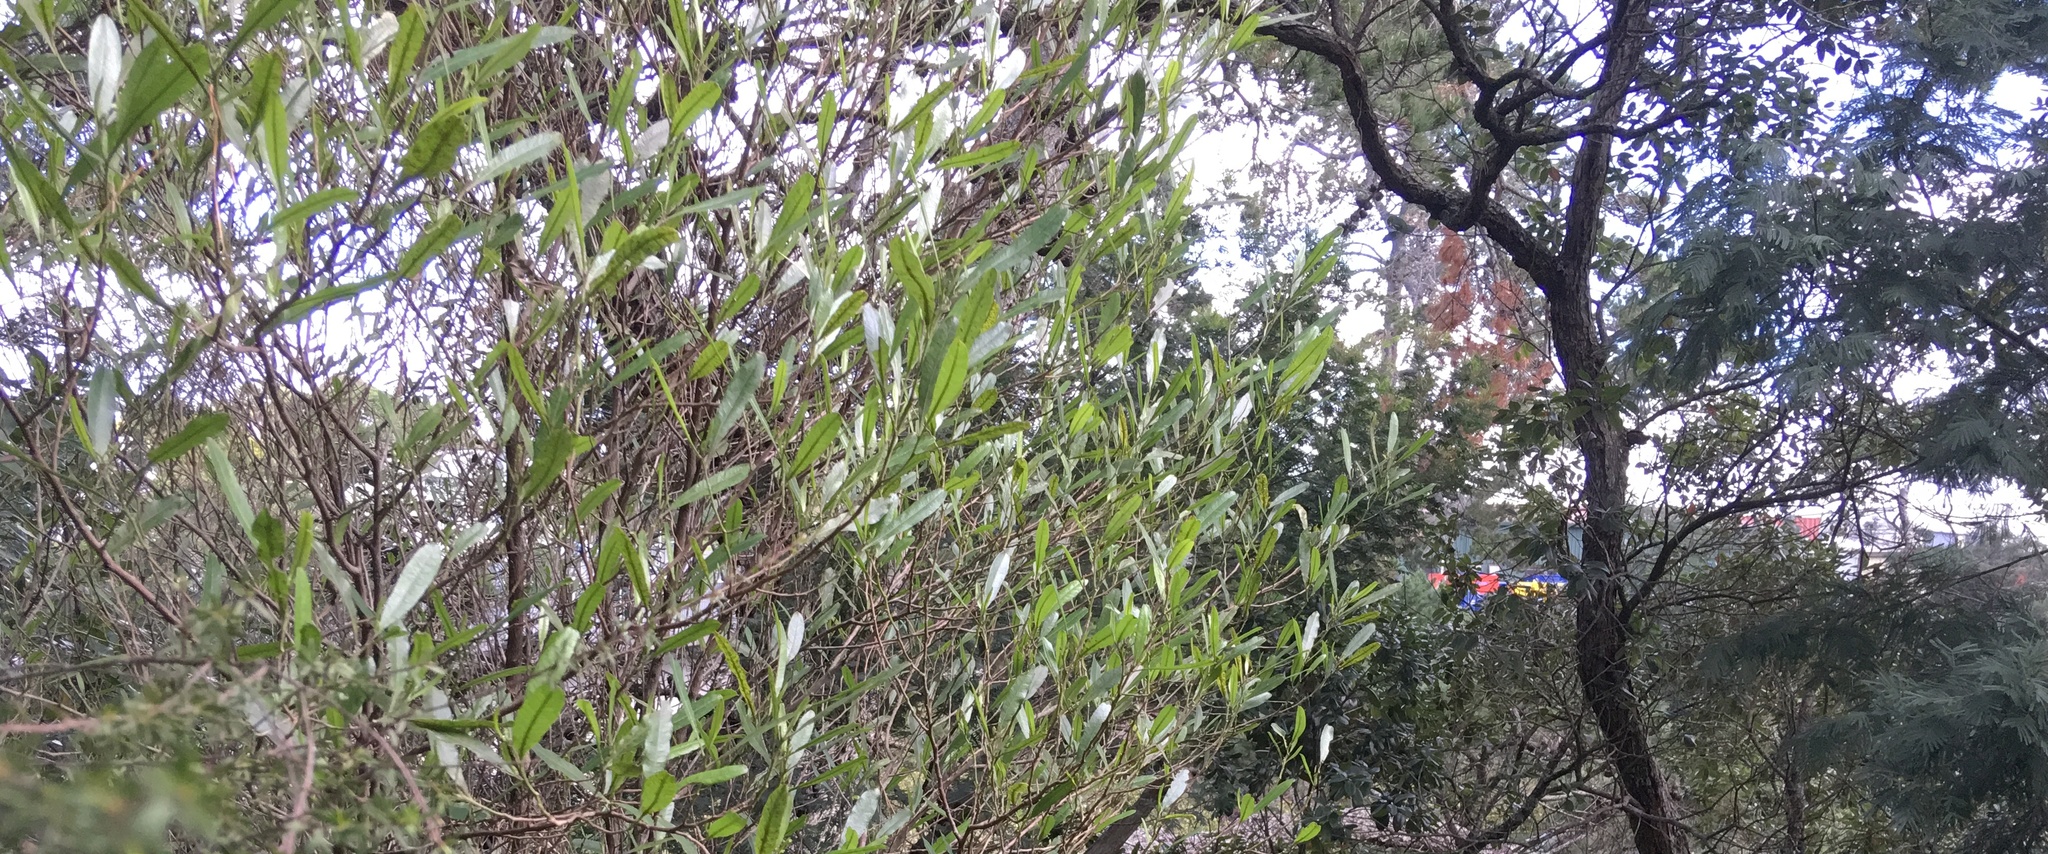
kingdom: Plantae
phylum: Tracheophyta
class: Magnoliopsida
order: Sapindales
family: Sapindaceae
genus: Dodonaea
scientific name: Dodonaea viscosa
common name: Hopbush
